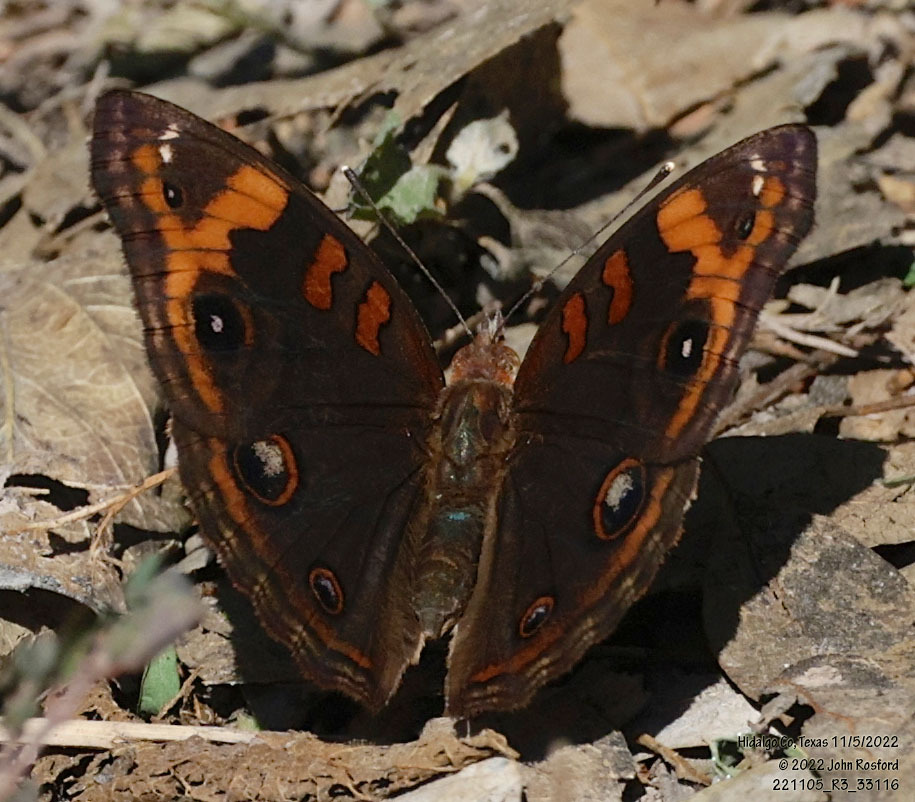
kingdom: Animalia
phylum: Arthropoda
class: Insecta
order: Lepidoptera
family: Nymphalidae
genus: Junonia
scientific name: Junonia stemosa
